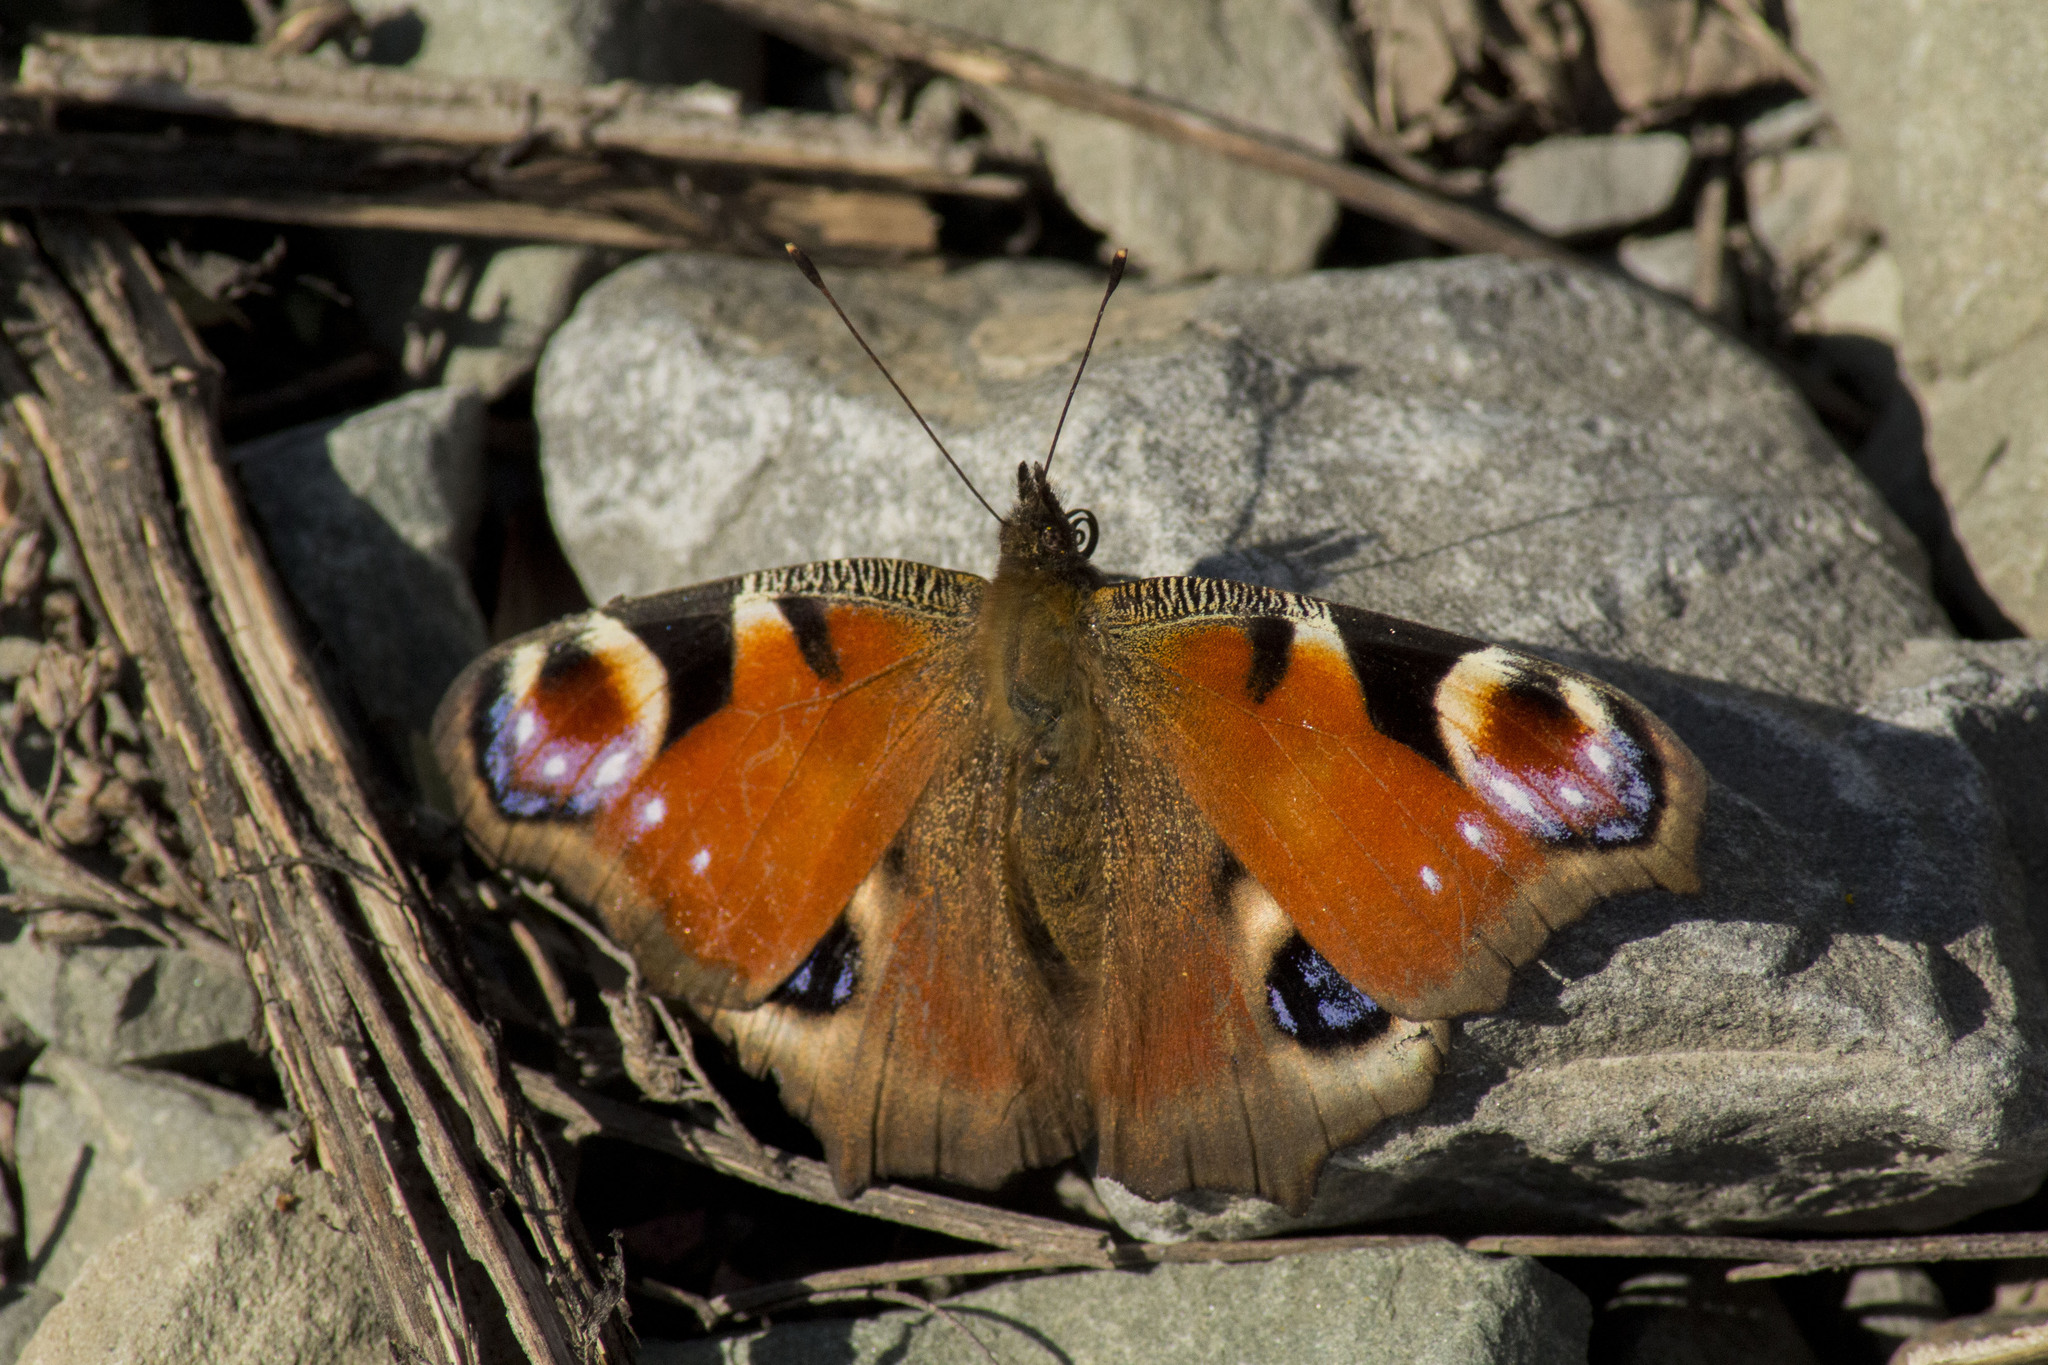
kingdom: Animalia
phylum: Arthropoda
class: Insecta
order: Lepidoptera
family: Nymphalidae
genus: Aglais
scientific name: Aglais io
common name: Peacock
